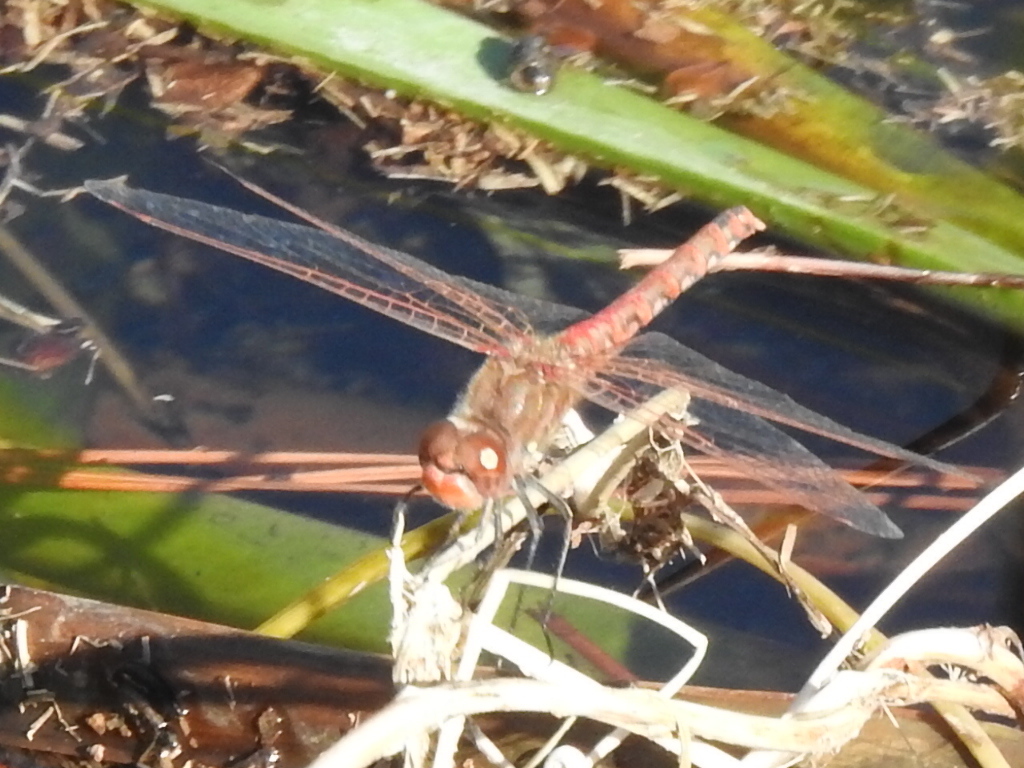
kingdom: Animalia
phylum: Arthropoda
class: Insecta
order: Odonata
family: Libellulidae
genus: Sympetrum
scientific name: Sympetrum corruptum
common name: Variegated meadowhawk
